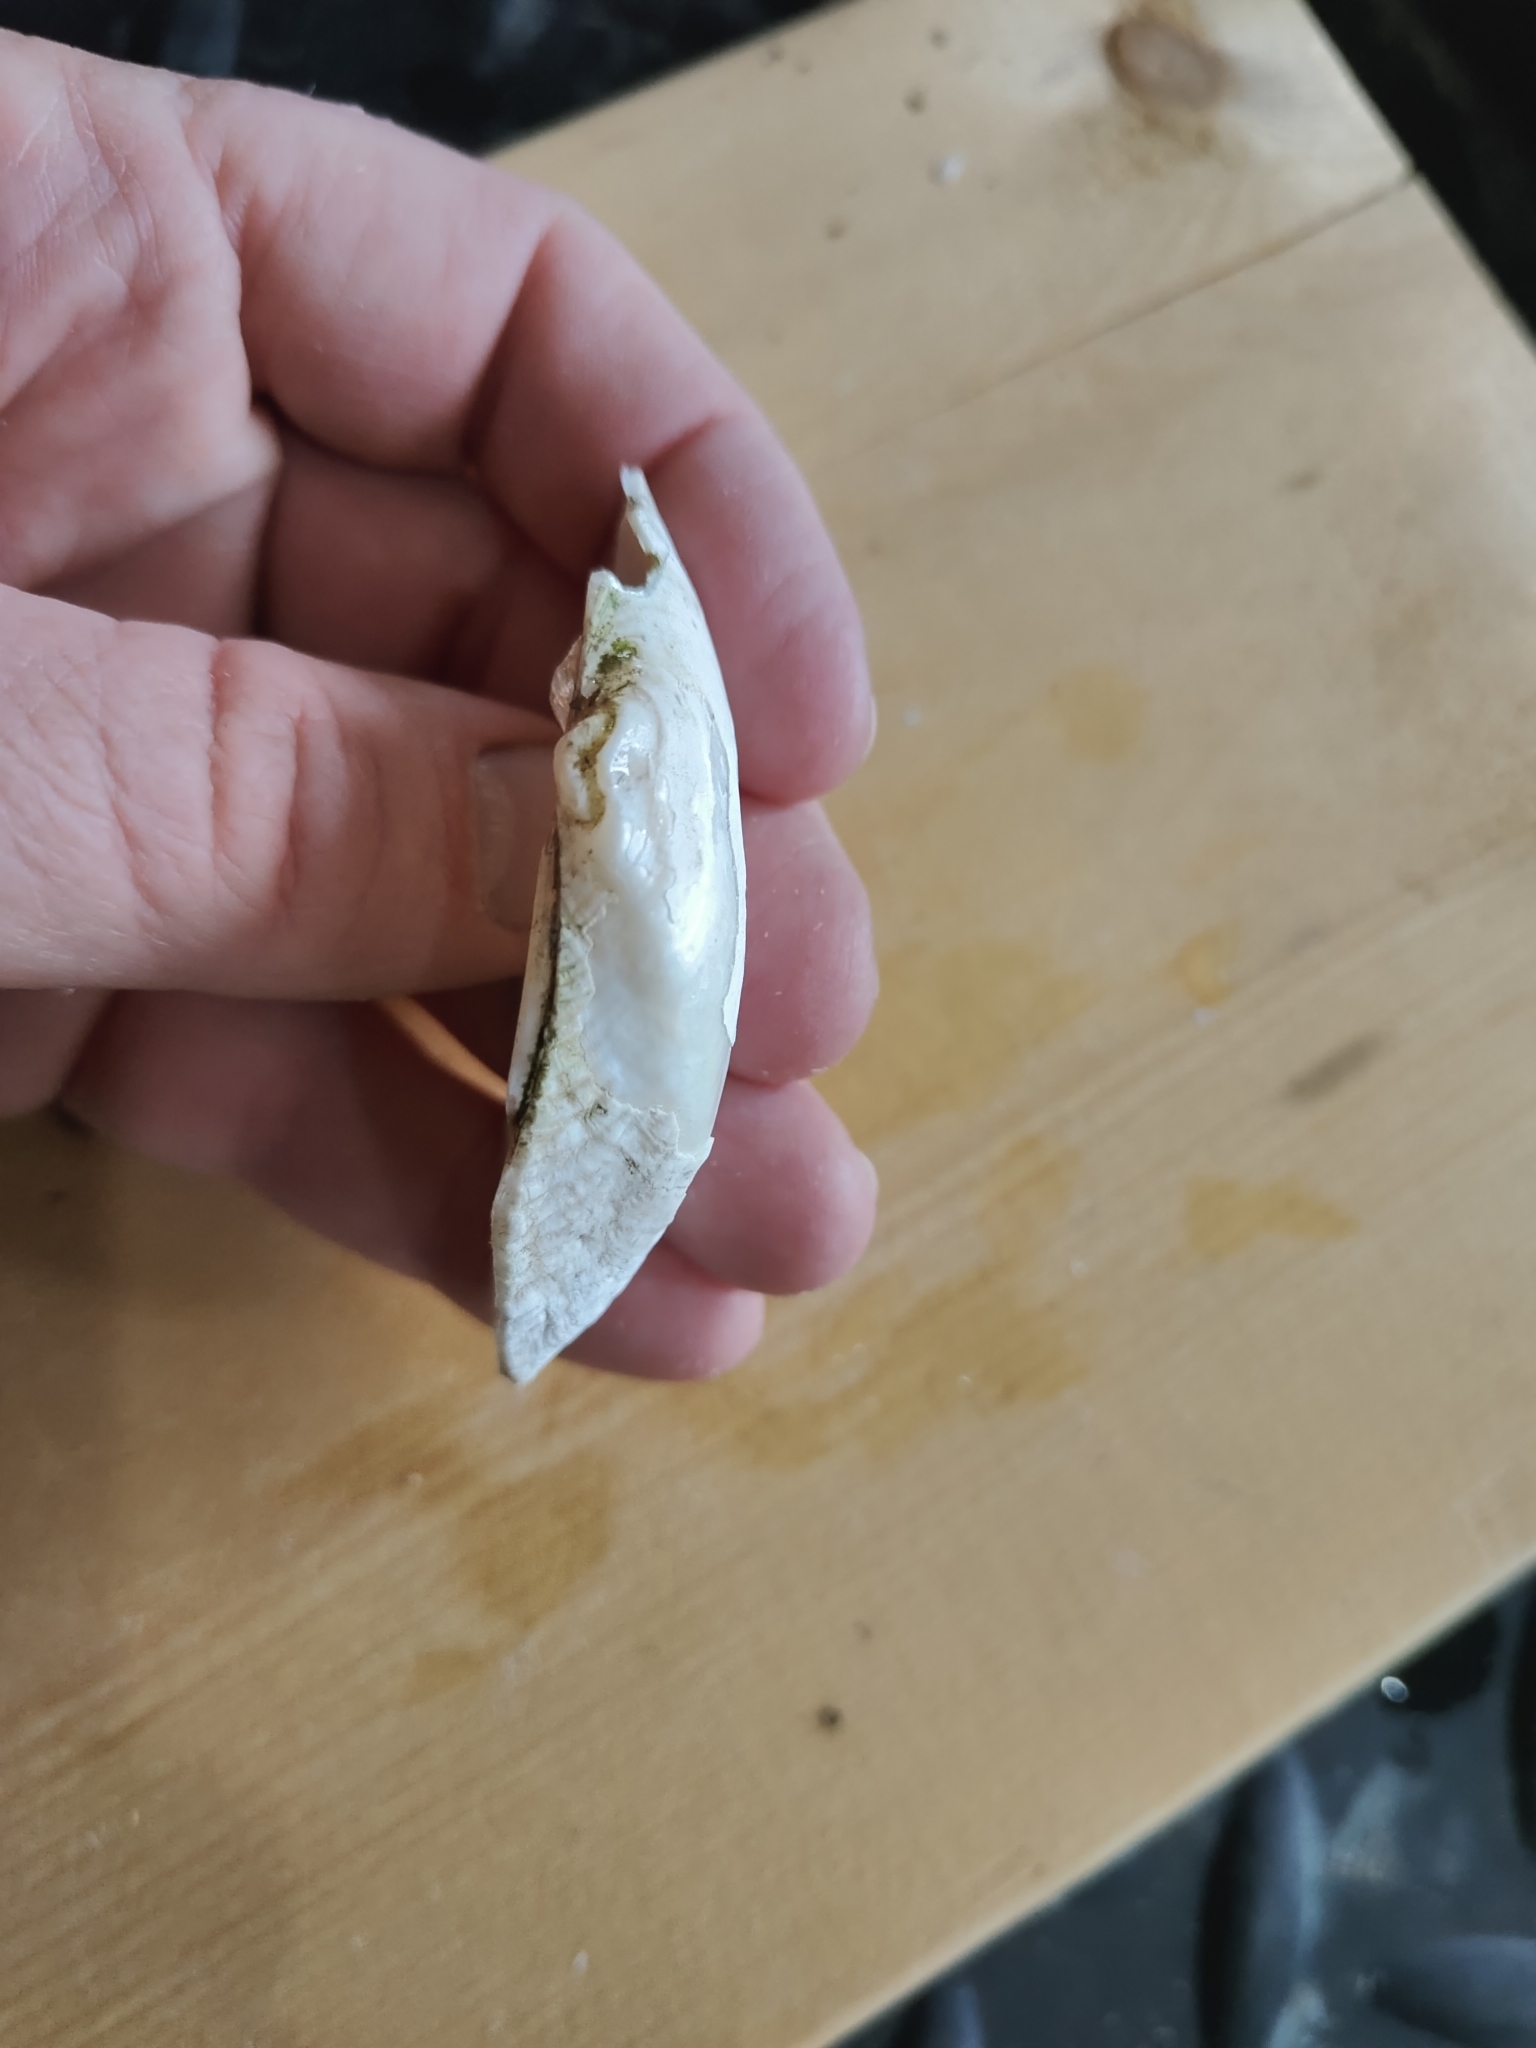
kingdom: Animalia
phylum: Mollusca
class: Bivalvia
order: Unionida
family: Unionidae
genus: Alasmidonta
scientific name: Alasmidonta marginata
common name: Elktoe
